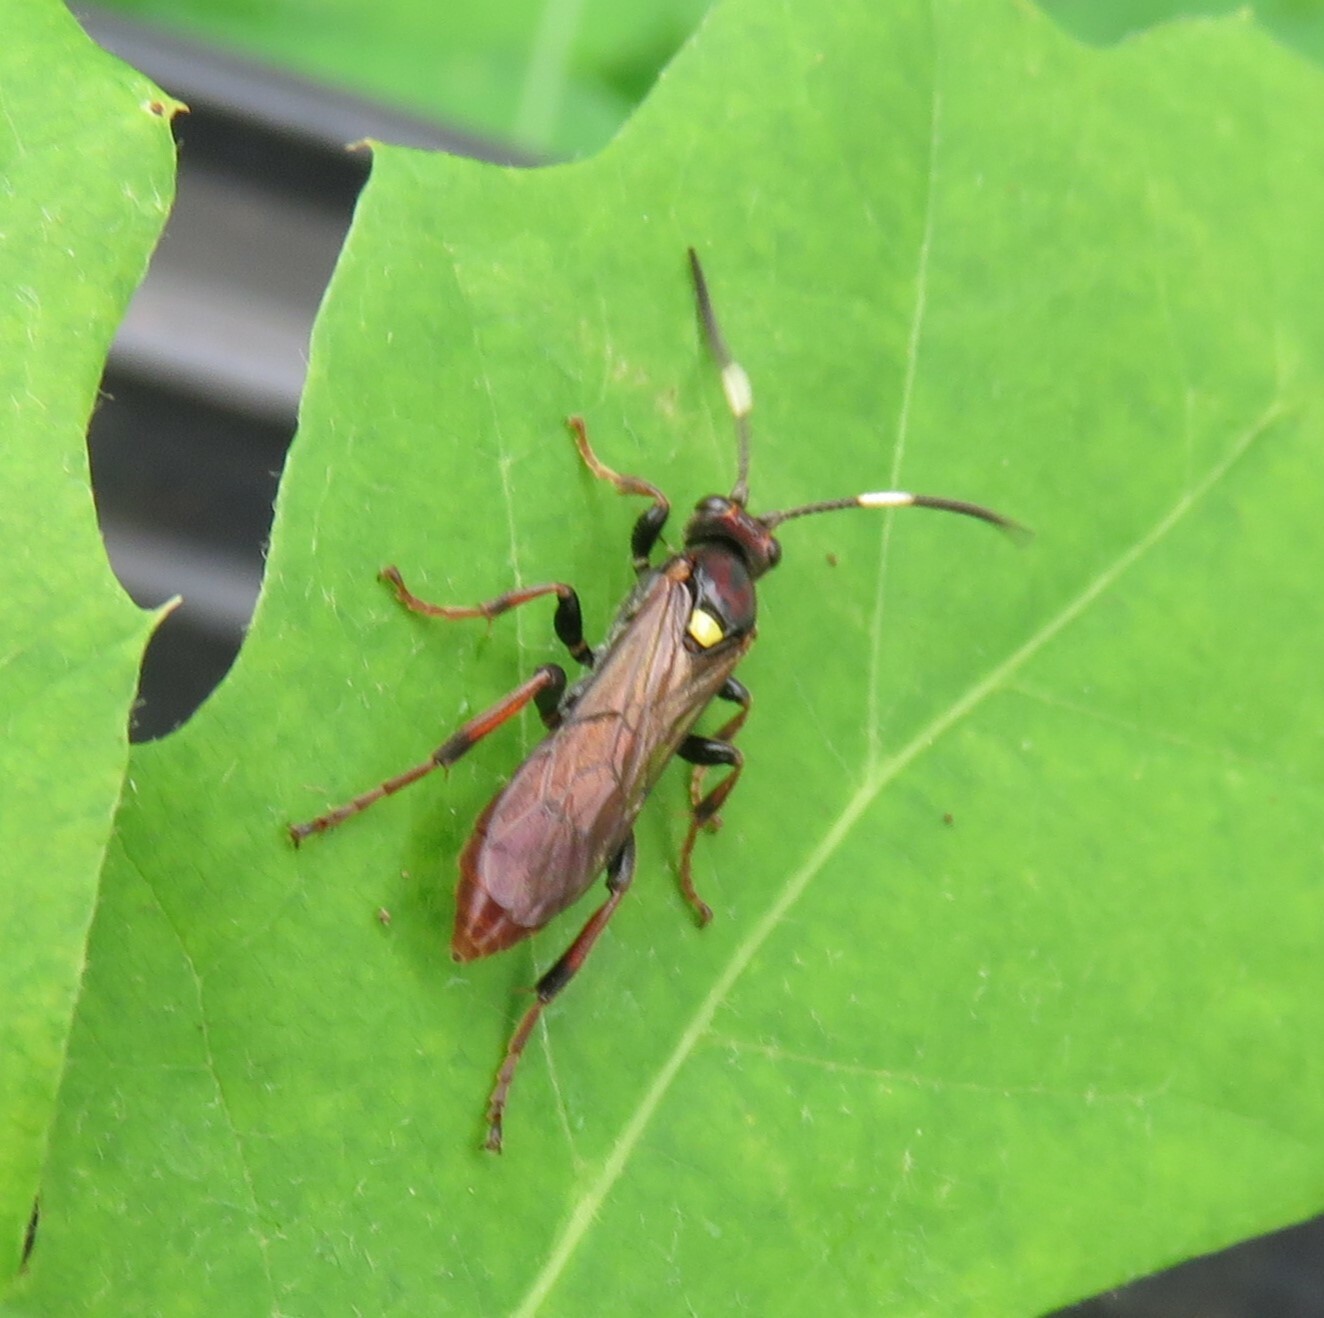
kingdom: Animalia
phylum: Arthropoda
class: Insecta
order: Hymenoptera
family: Ichneumonidae
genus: Ichneumon
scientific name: Ichneumon annulatorius
